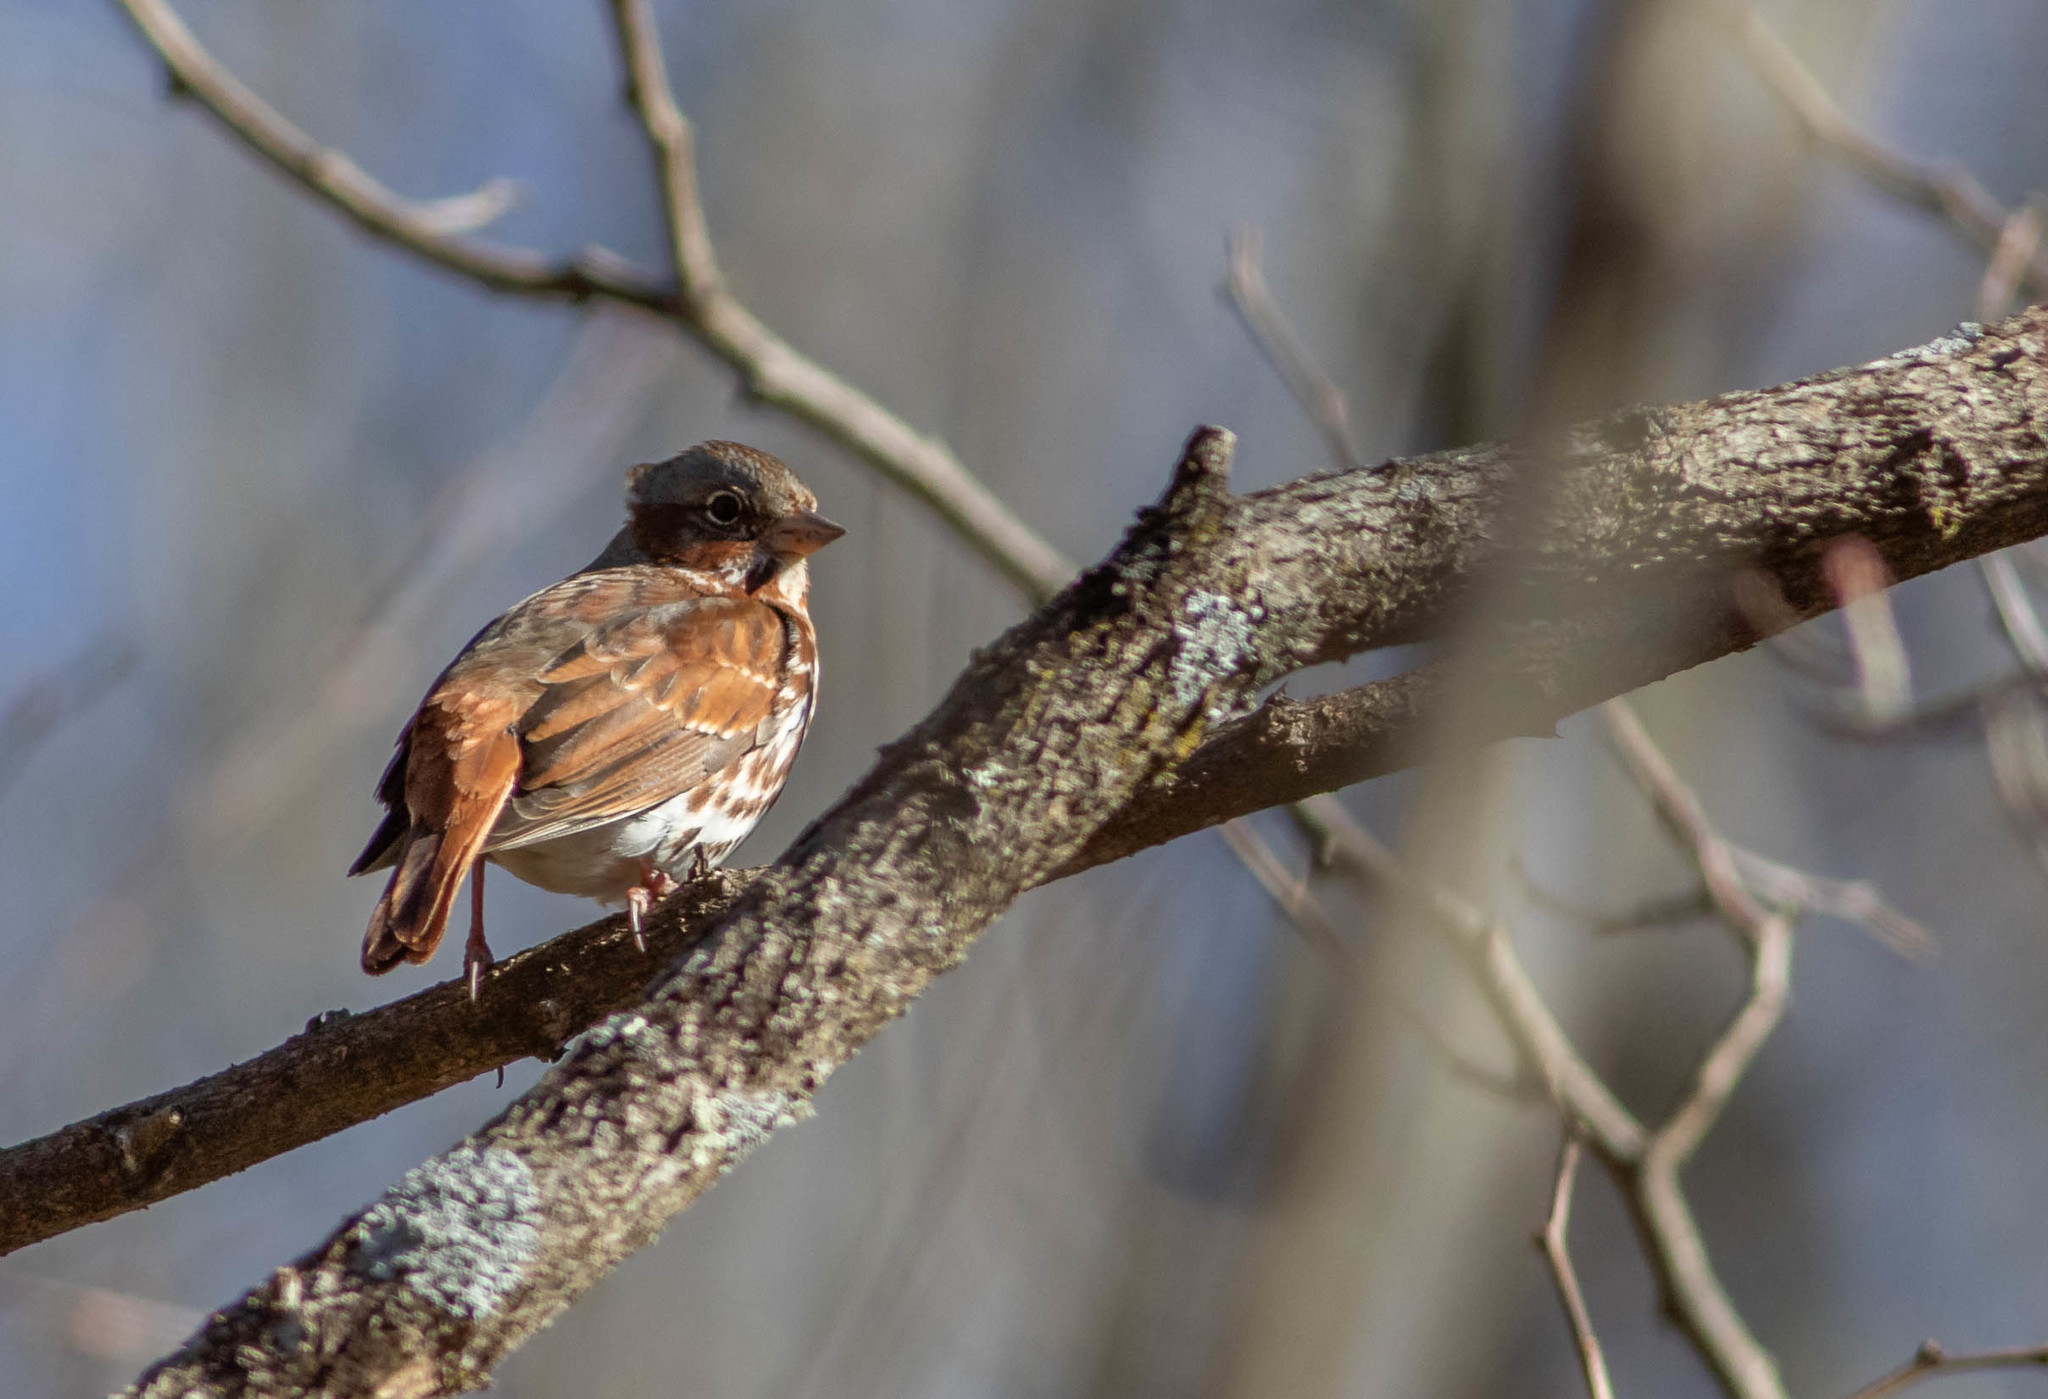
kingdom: Animalia
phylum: Chordata
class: Aves
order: Passeriformes
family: Passerellidae
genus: Passerella
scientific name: Passerella iliaca
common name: Fox sparrow
